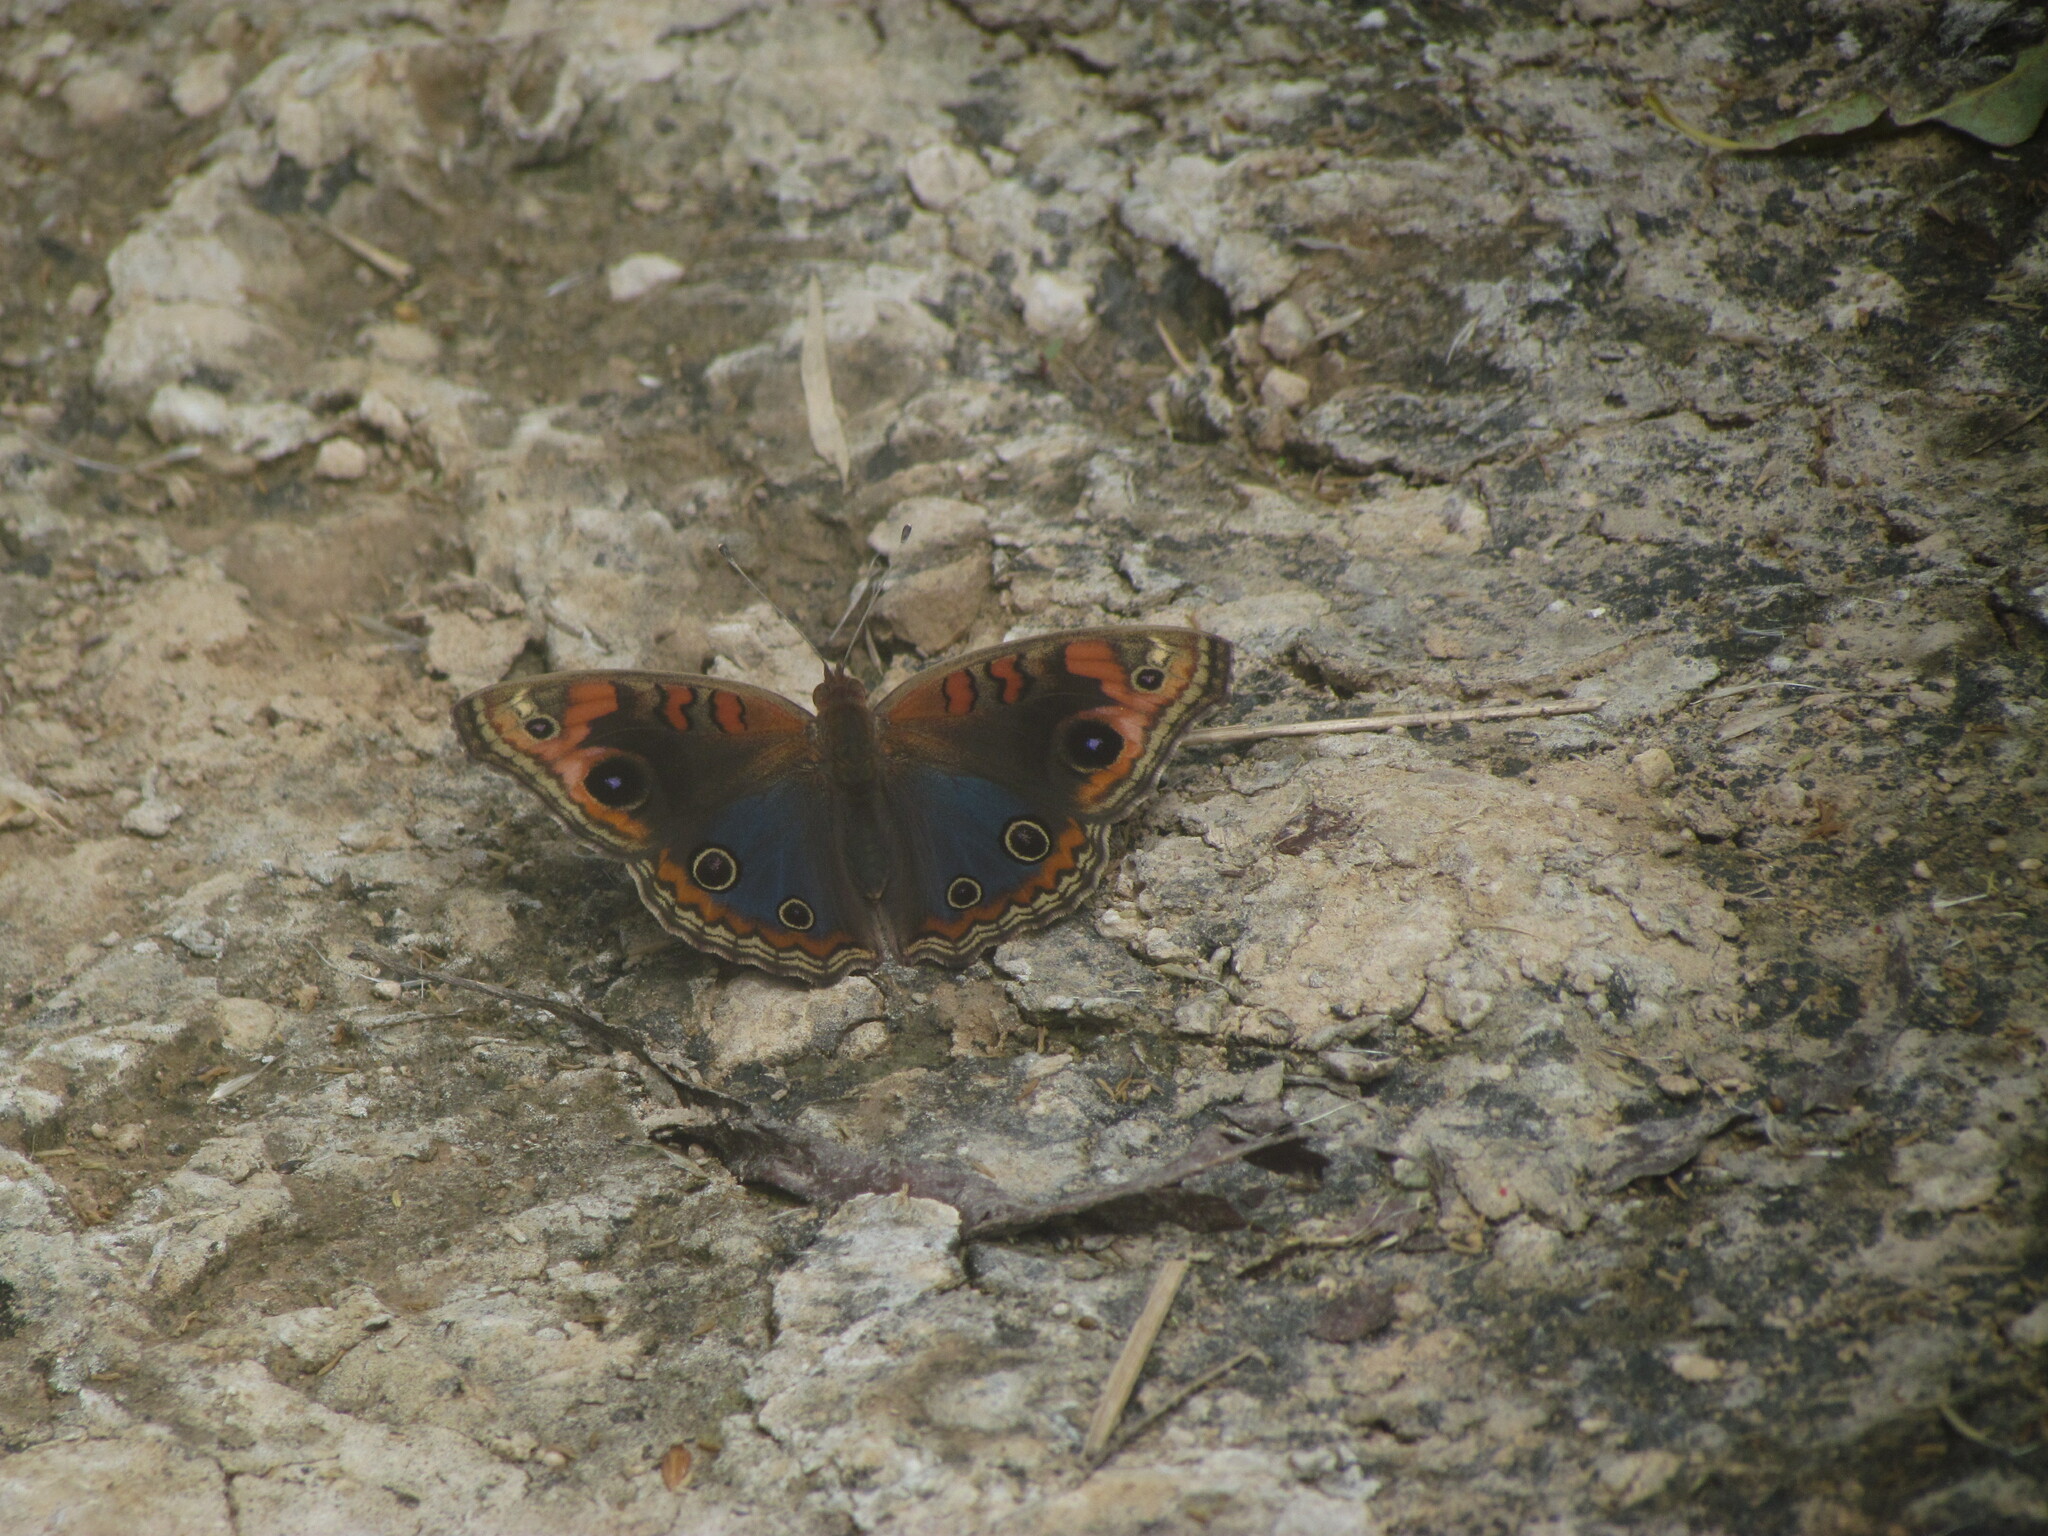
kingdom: Animalia
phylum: Arthropoda
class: Insecta
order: Lepidoptera
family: Nymphalidae
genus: Junonia
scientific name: Junonia lavinia
